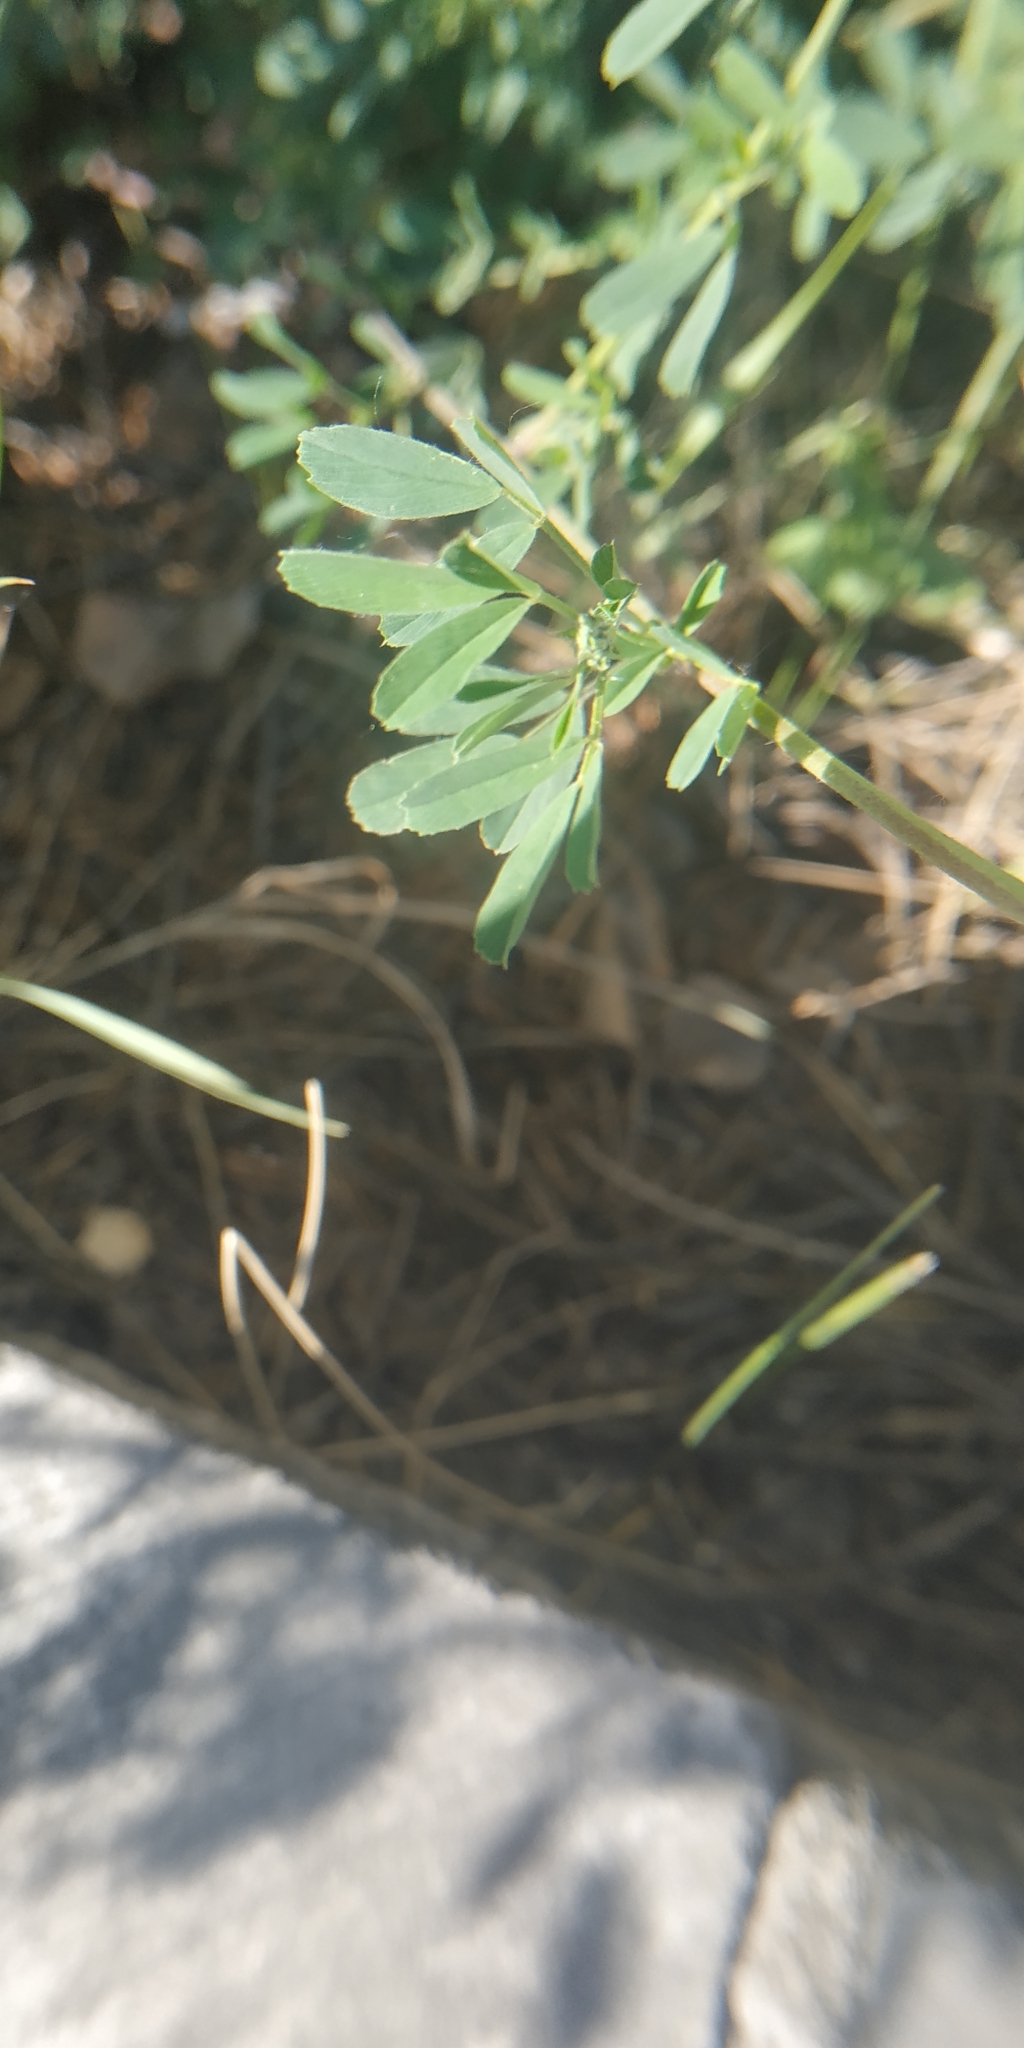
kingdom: Plantae
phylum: Tracheophyta
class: Magnoliopsida
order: Fabales
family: Fabaceae
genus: Medicago
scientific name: Medicago falcata
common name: Sickle medick
